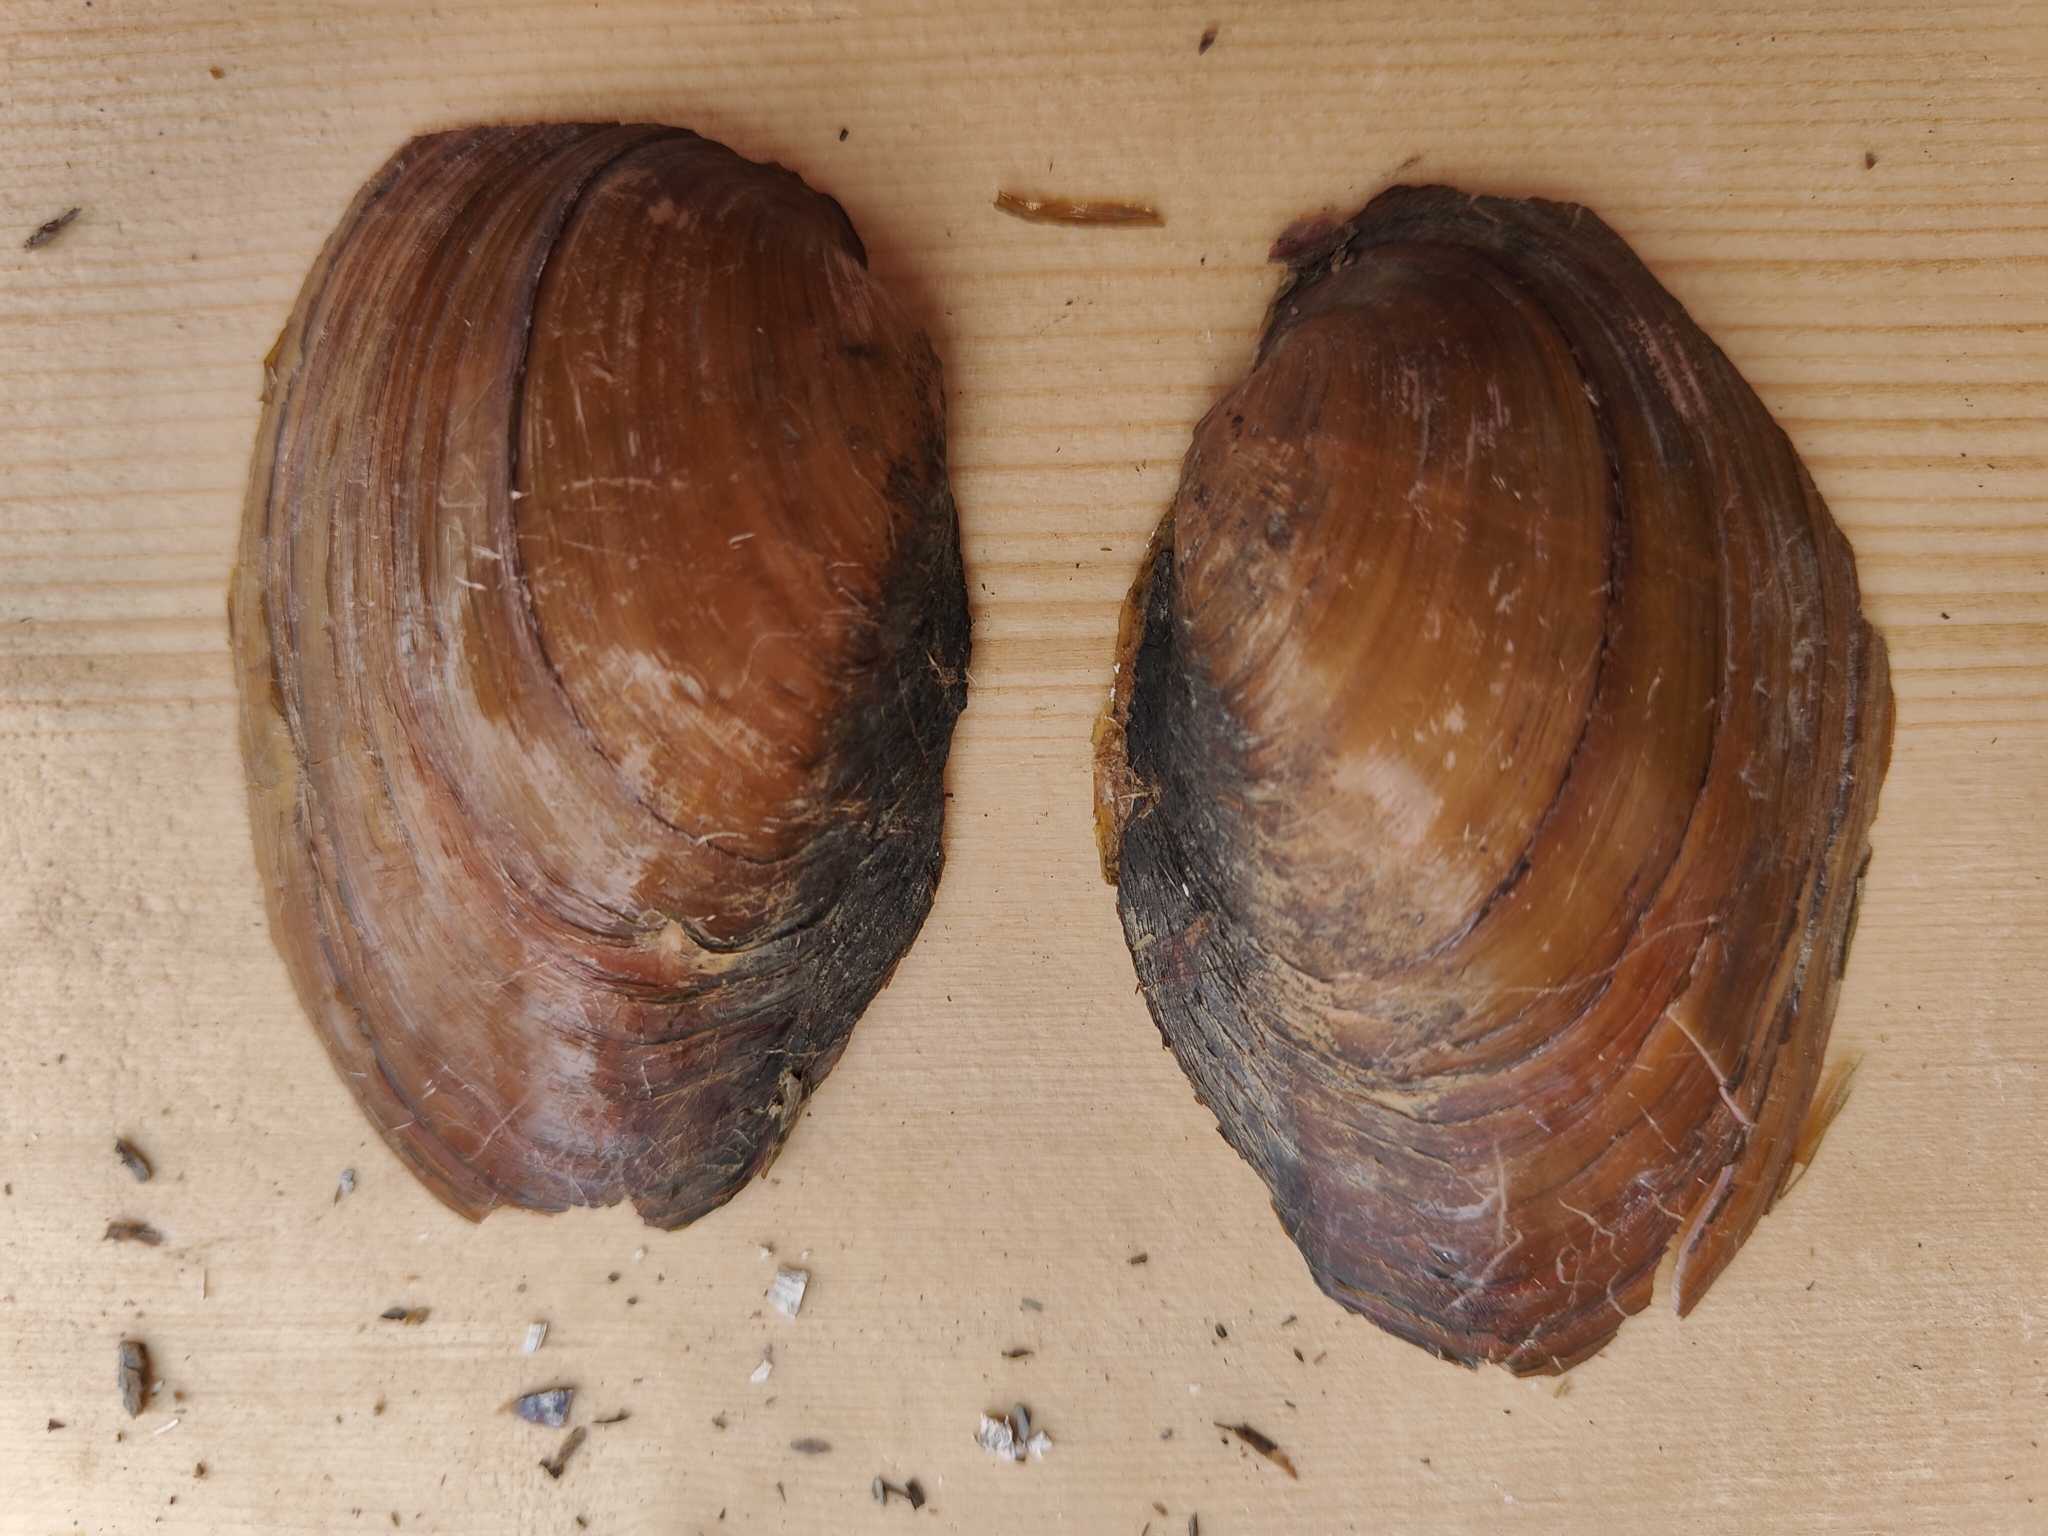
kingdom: Animalia
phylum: Mollusca
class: Bivalvia
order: Unionida
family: Unionidae
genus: Pyganodon
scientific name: Pyganodon grandis
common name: Giant floater
